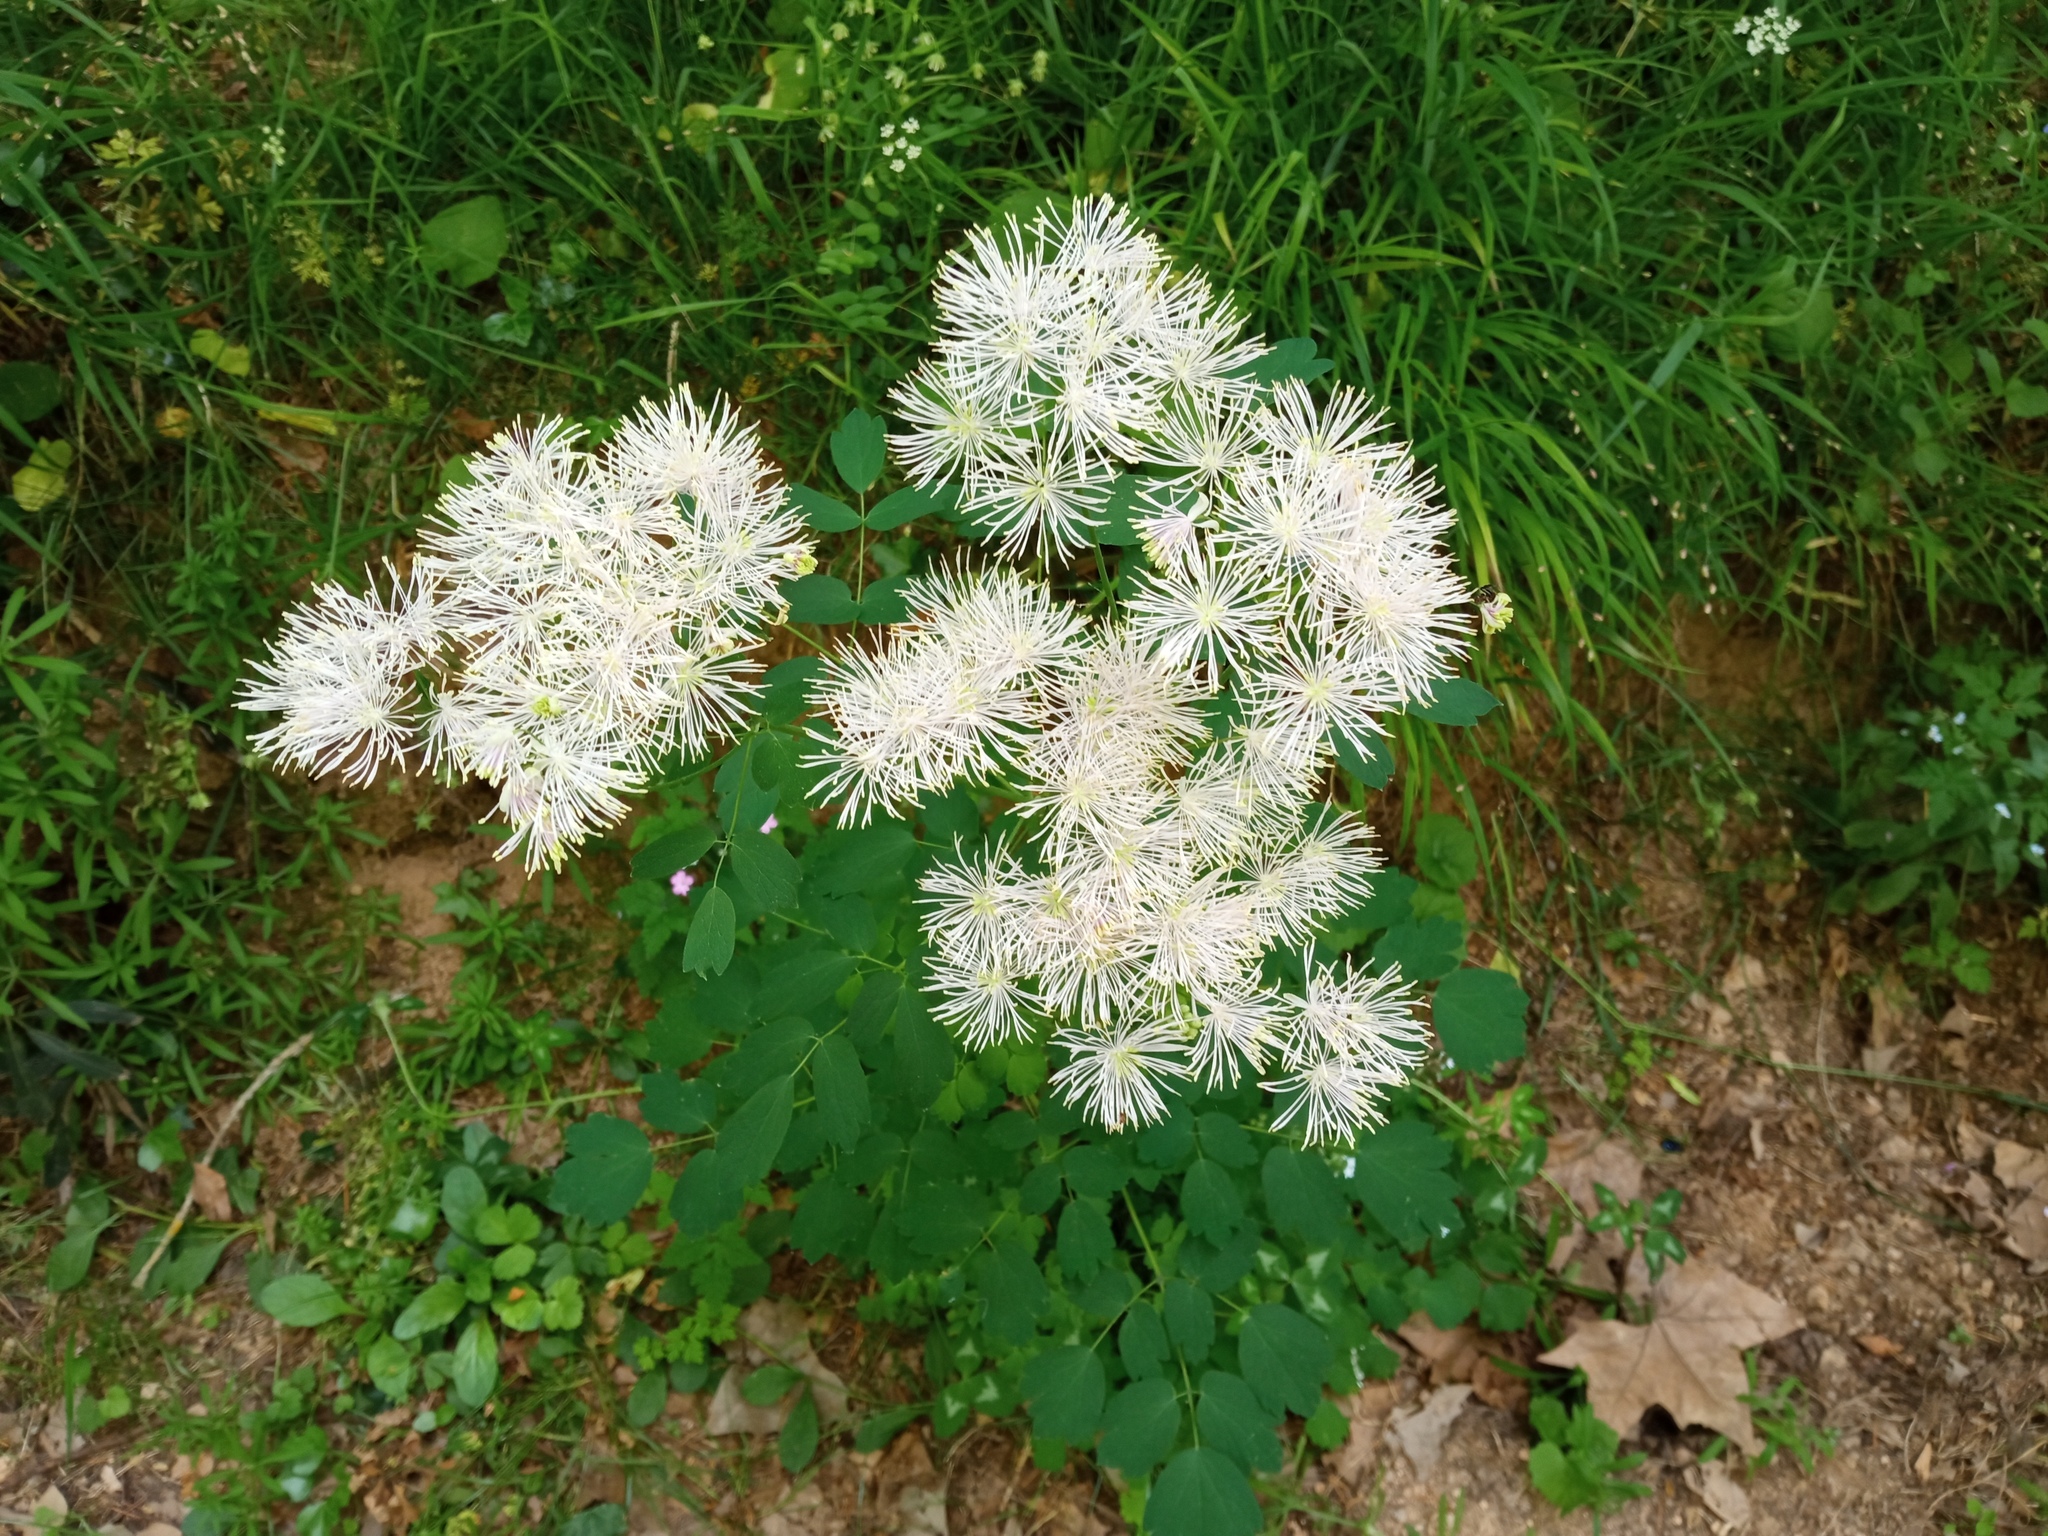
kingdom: Plantae
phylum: Tracheophyta
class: Magnoliopsida
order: Ranunculales
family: Ranunculaceae
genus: Thalictrum
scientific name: Thalictrum aquilegiifolium
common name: French meadow-rue
